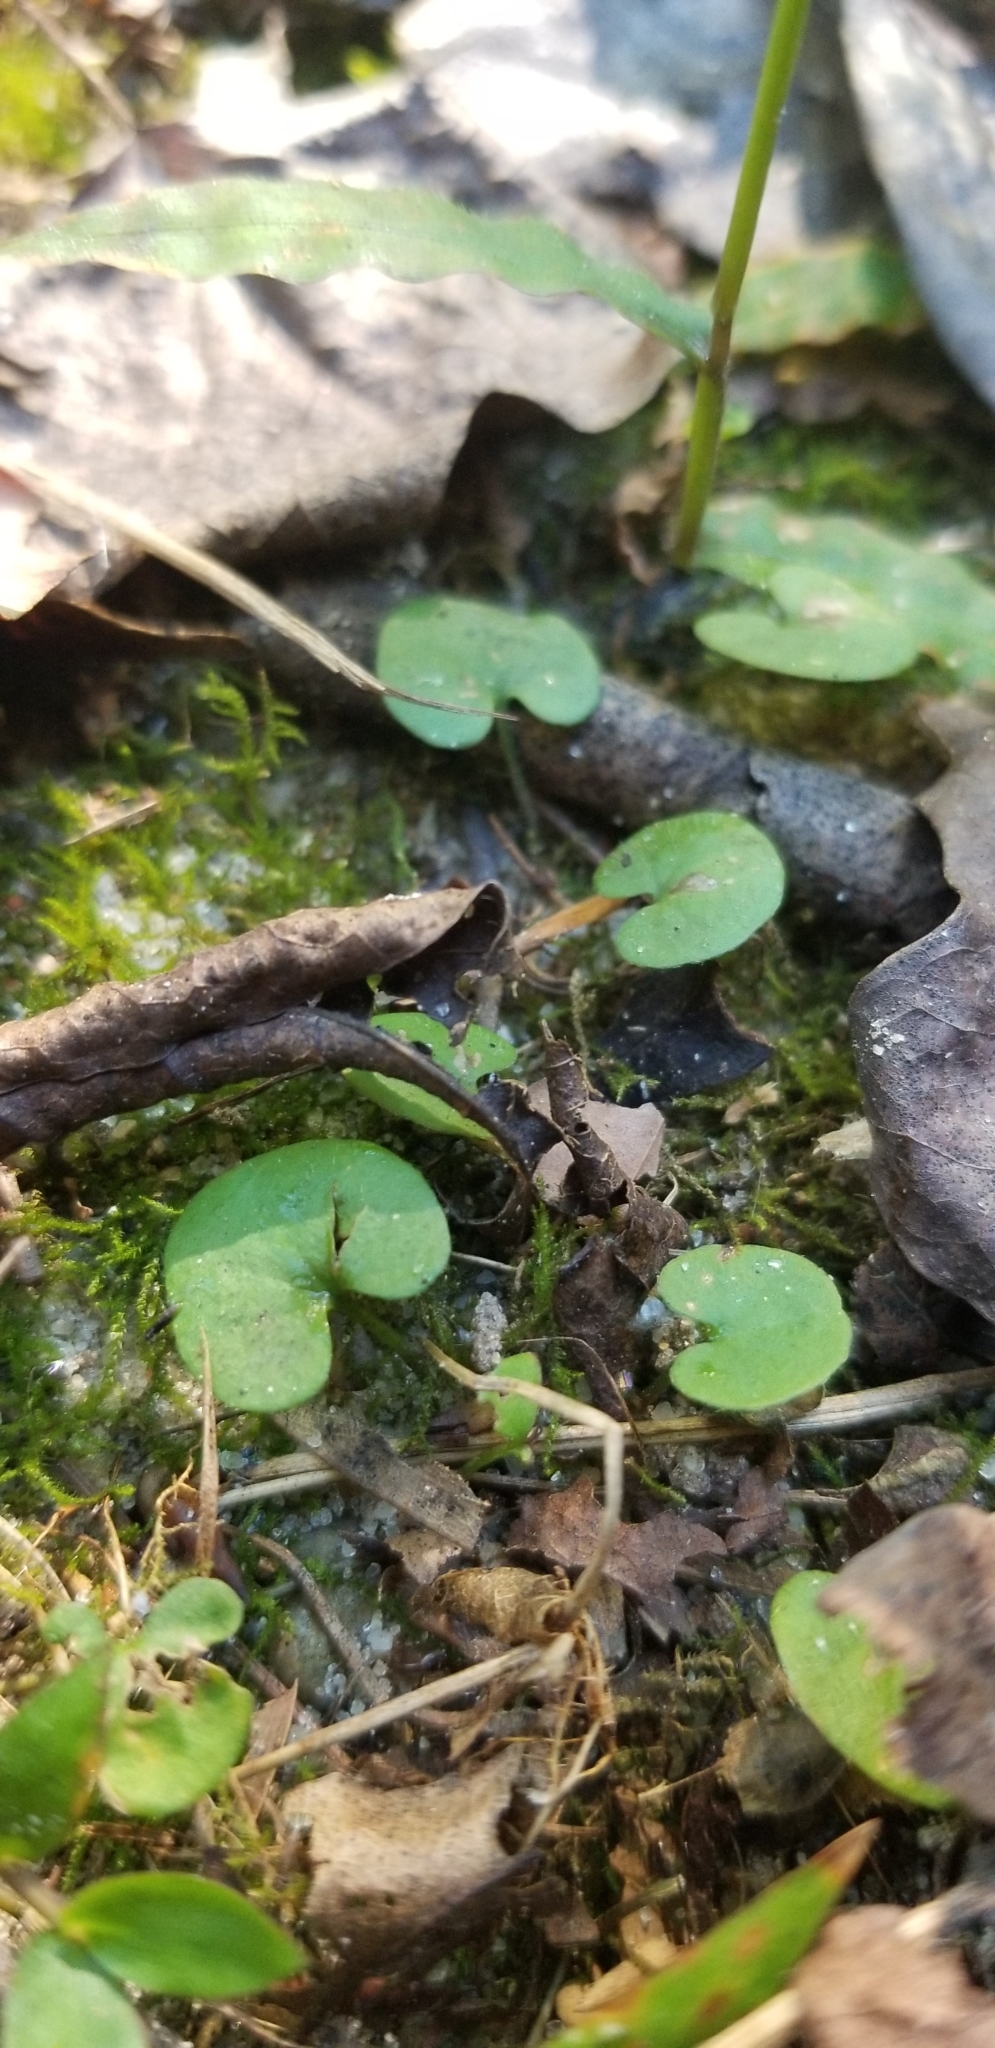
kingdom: Plantae
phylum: Tracheophyta
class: Magnoliopsida
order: Solanales
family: Convolvulaceae
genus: Dichondra
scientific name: Dichondra carolinensis
